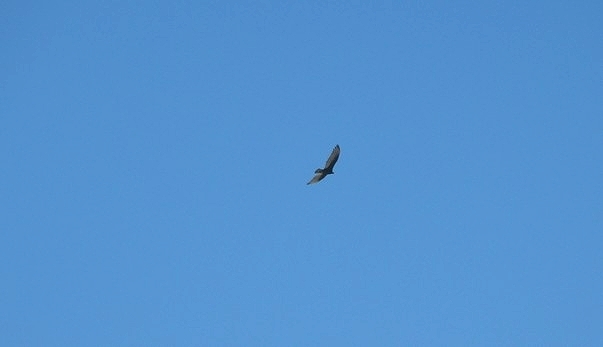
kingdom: Animalia
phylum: Chordata
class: Aves
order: Accipitriformes
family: Cathartidae
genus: Cathartes
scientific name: Cathartes aura
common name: Turkey vulture
